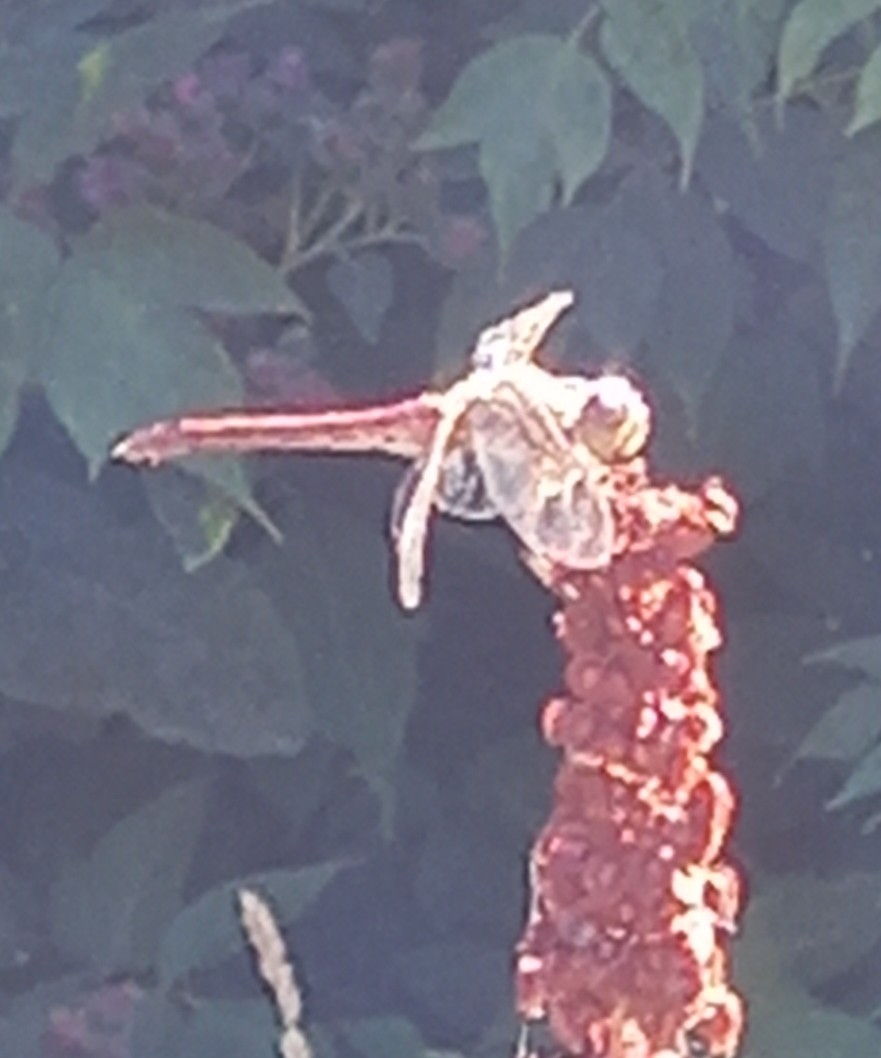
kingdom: Animalia
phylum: Arthropoda
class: Insecta
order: Odonata
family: Libellulidae
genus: Sympetrum
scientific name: Sympetrum vulgatum
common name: Vagrant darter
